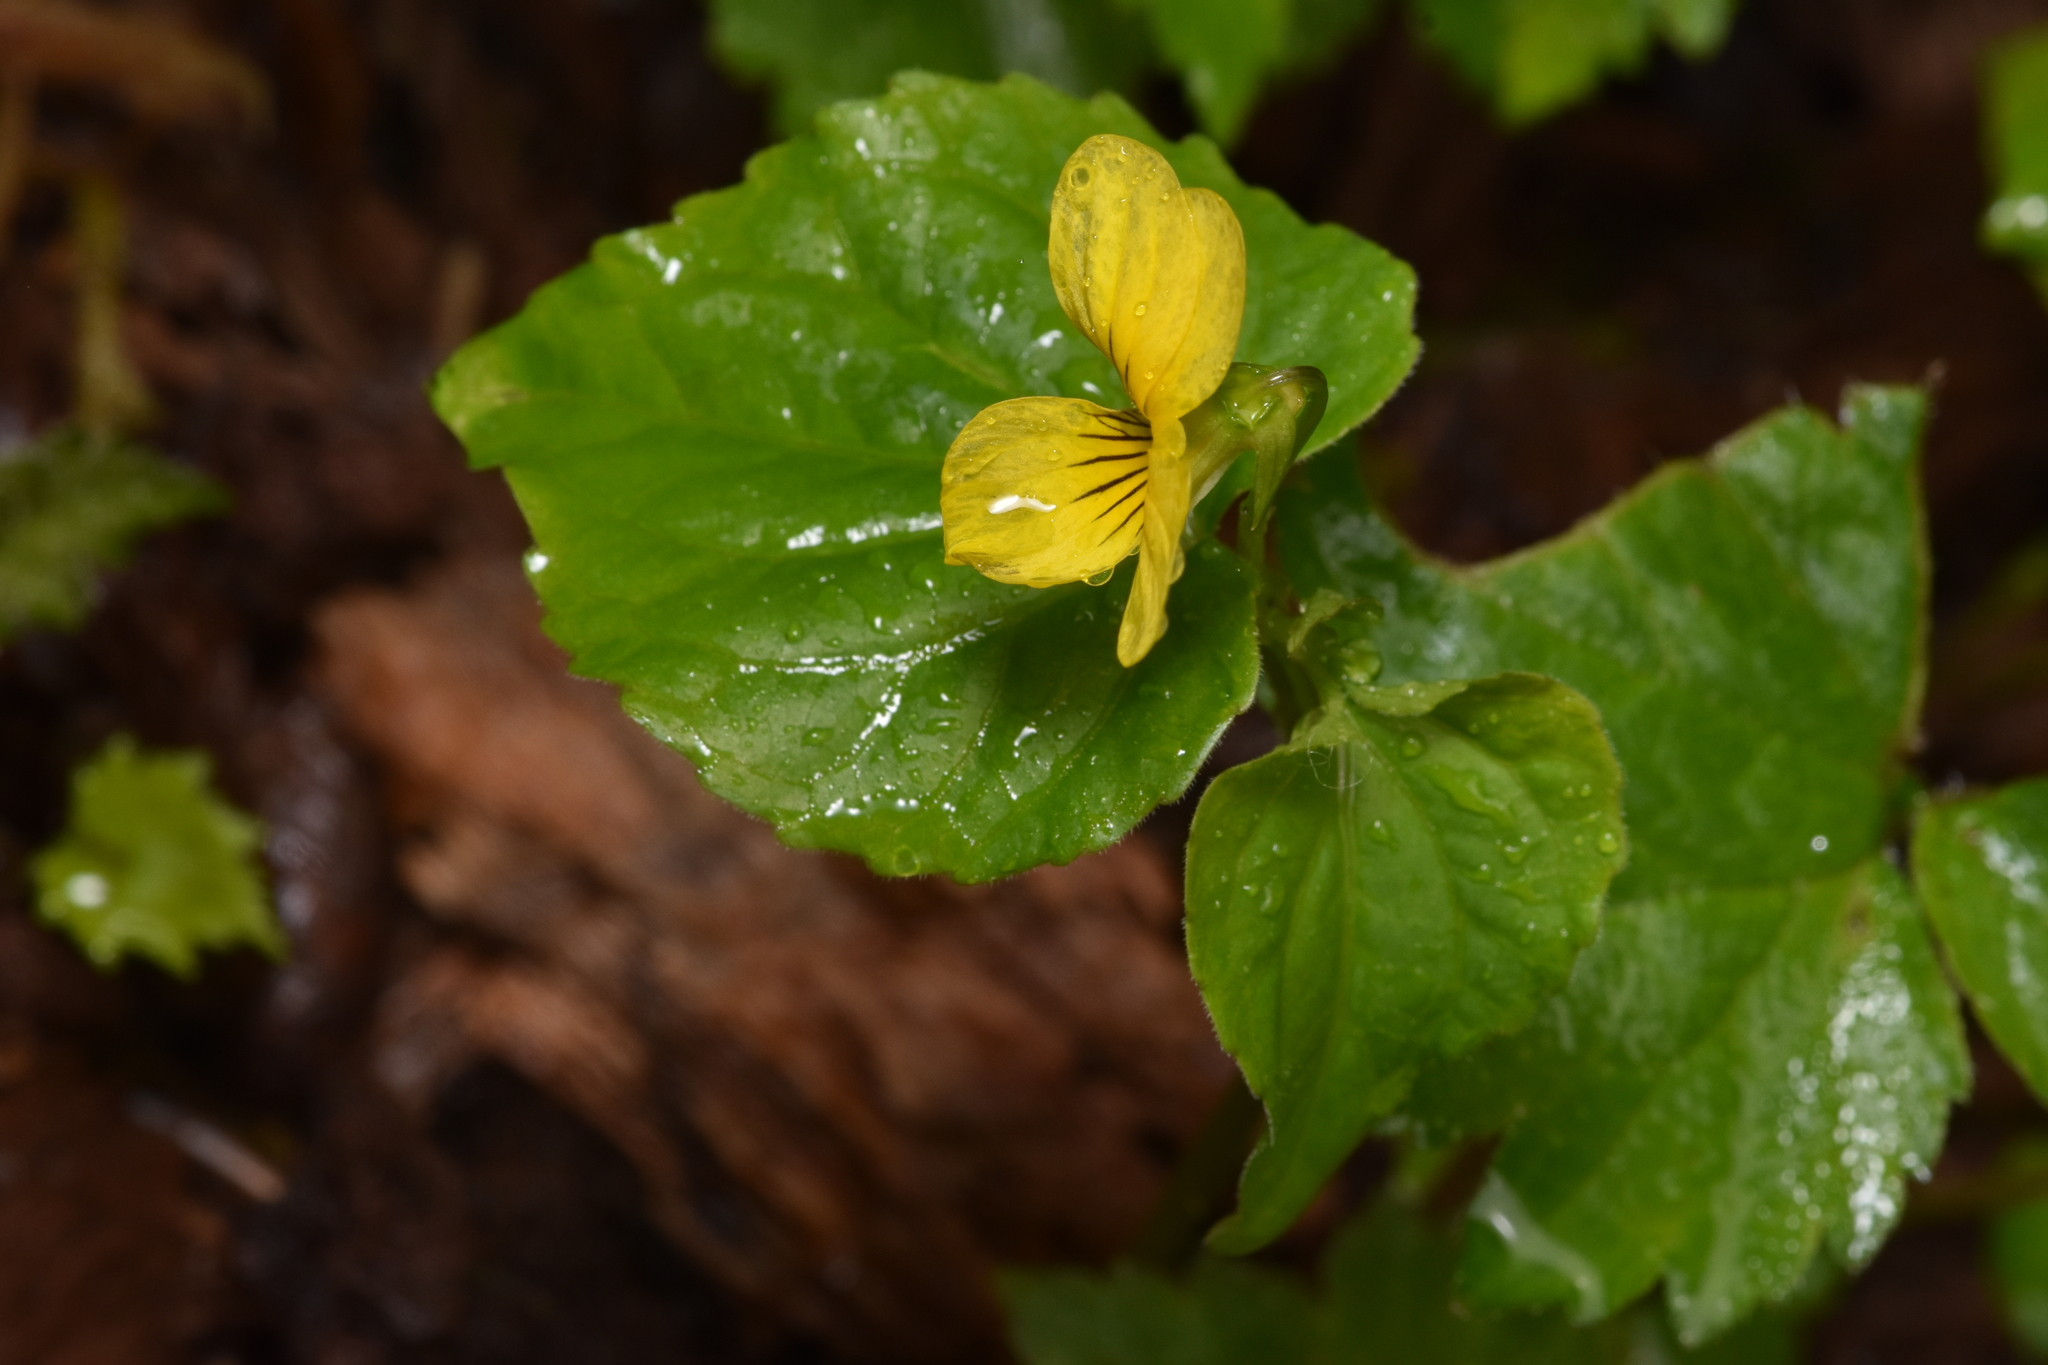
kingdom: Plantae
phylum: Tracheophyta
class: Magnoliopsida
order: Malpighiales
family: Violaceae
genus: Viola
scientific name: Viola glabella
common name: Stream violet
